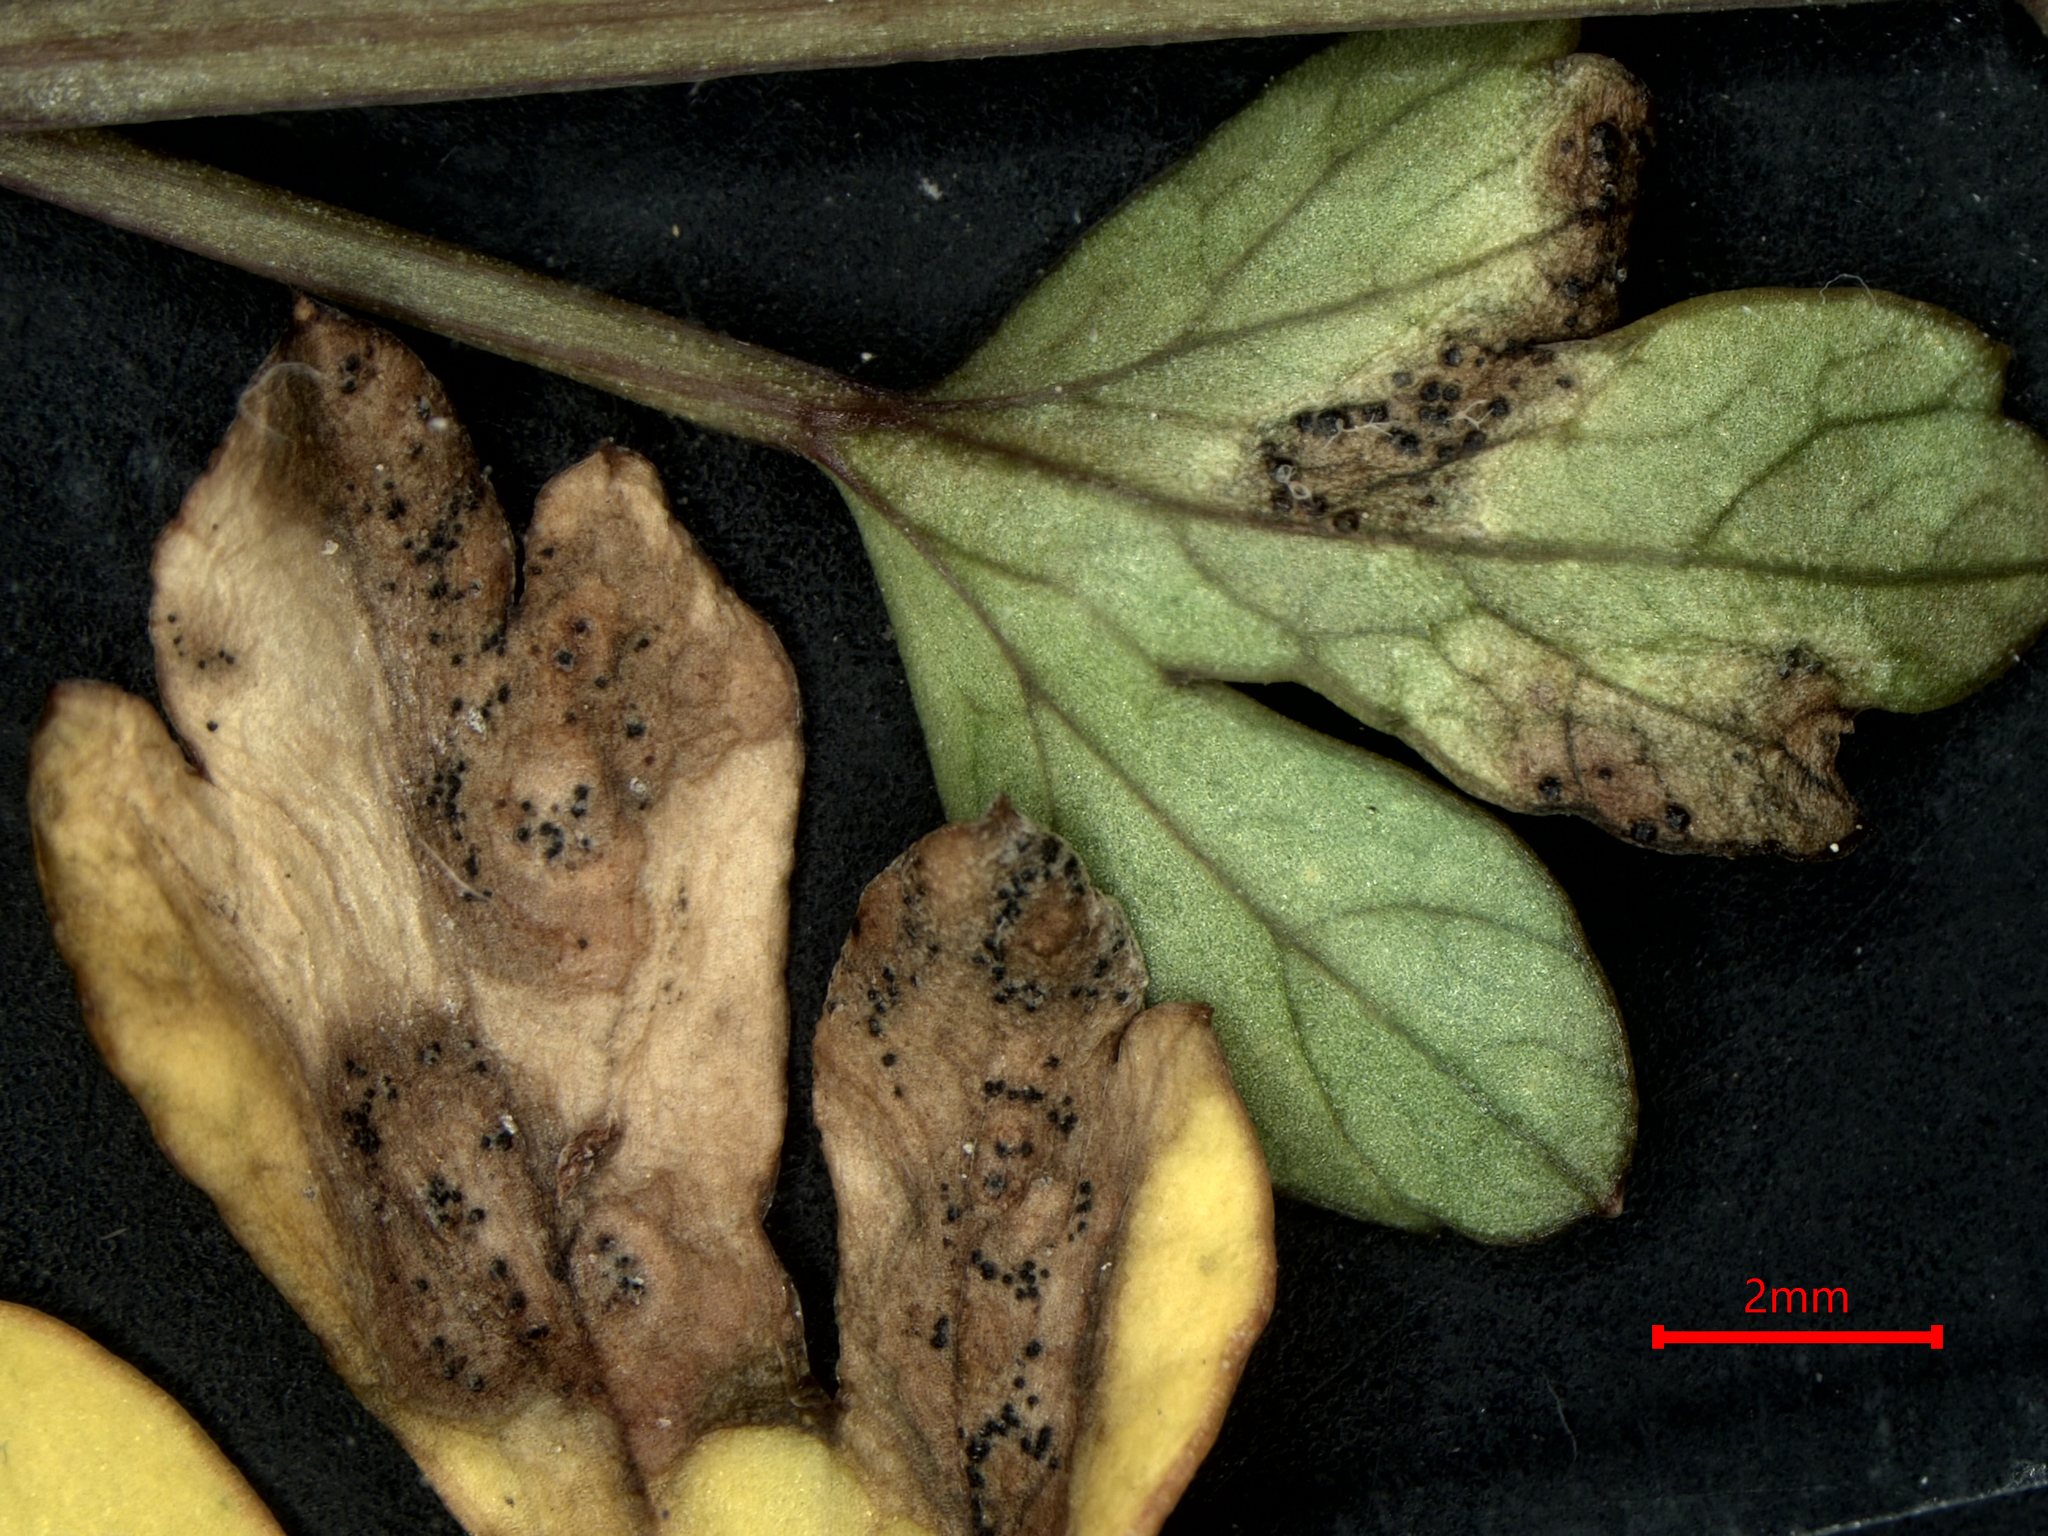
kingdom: Fungi
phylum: Ascomycota
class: Dothideomycetes
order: Mycosphaerellales
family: Mycosphaerellaceae
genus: Septoria
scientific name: Septoria apiicola
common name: Celery late blight
